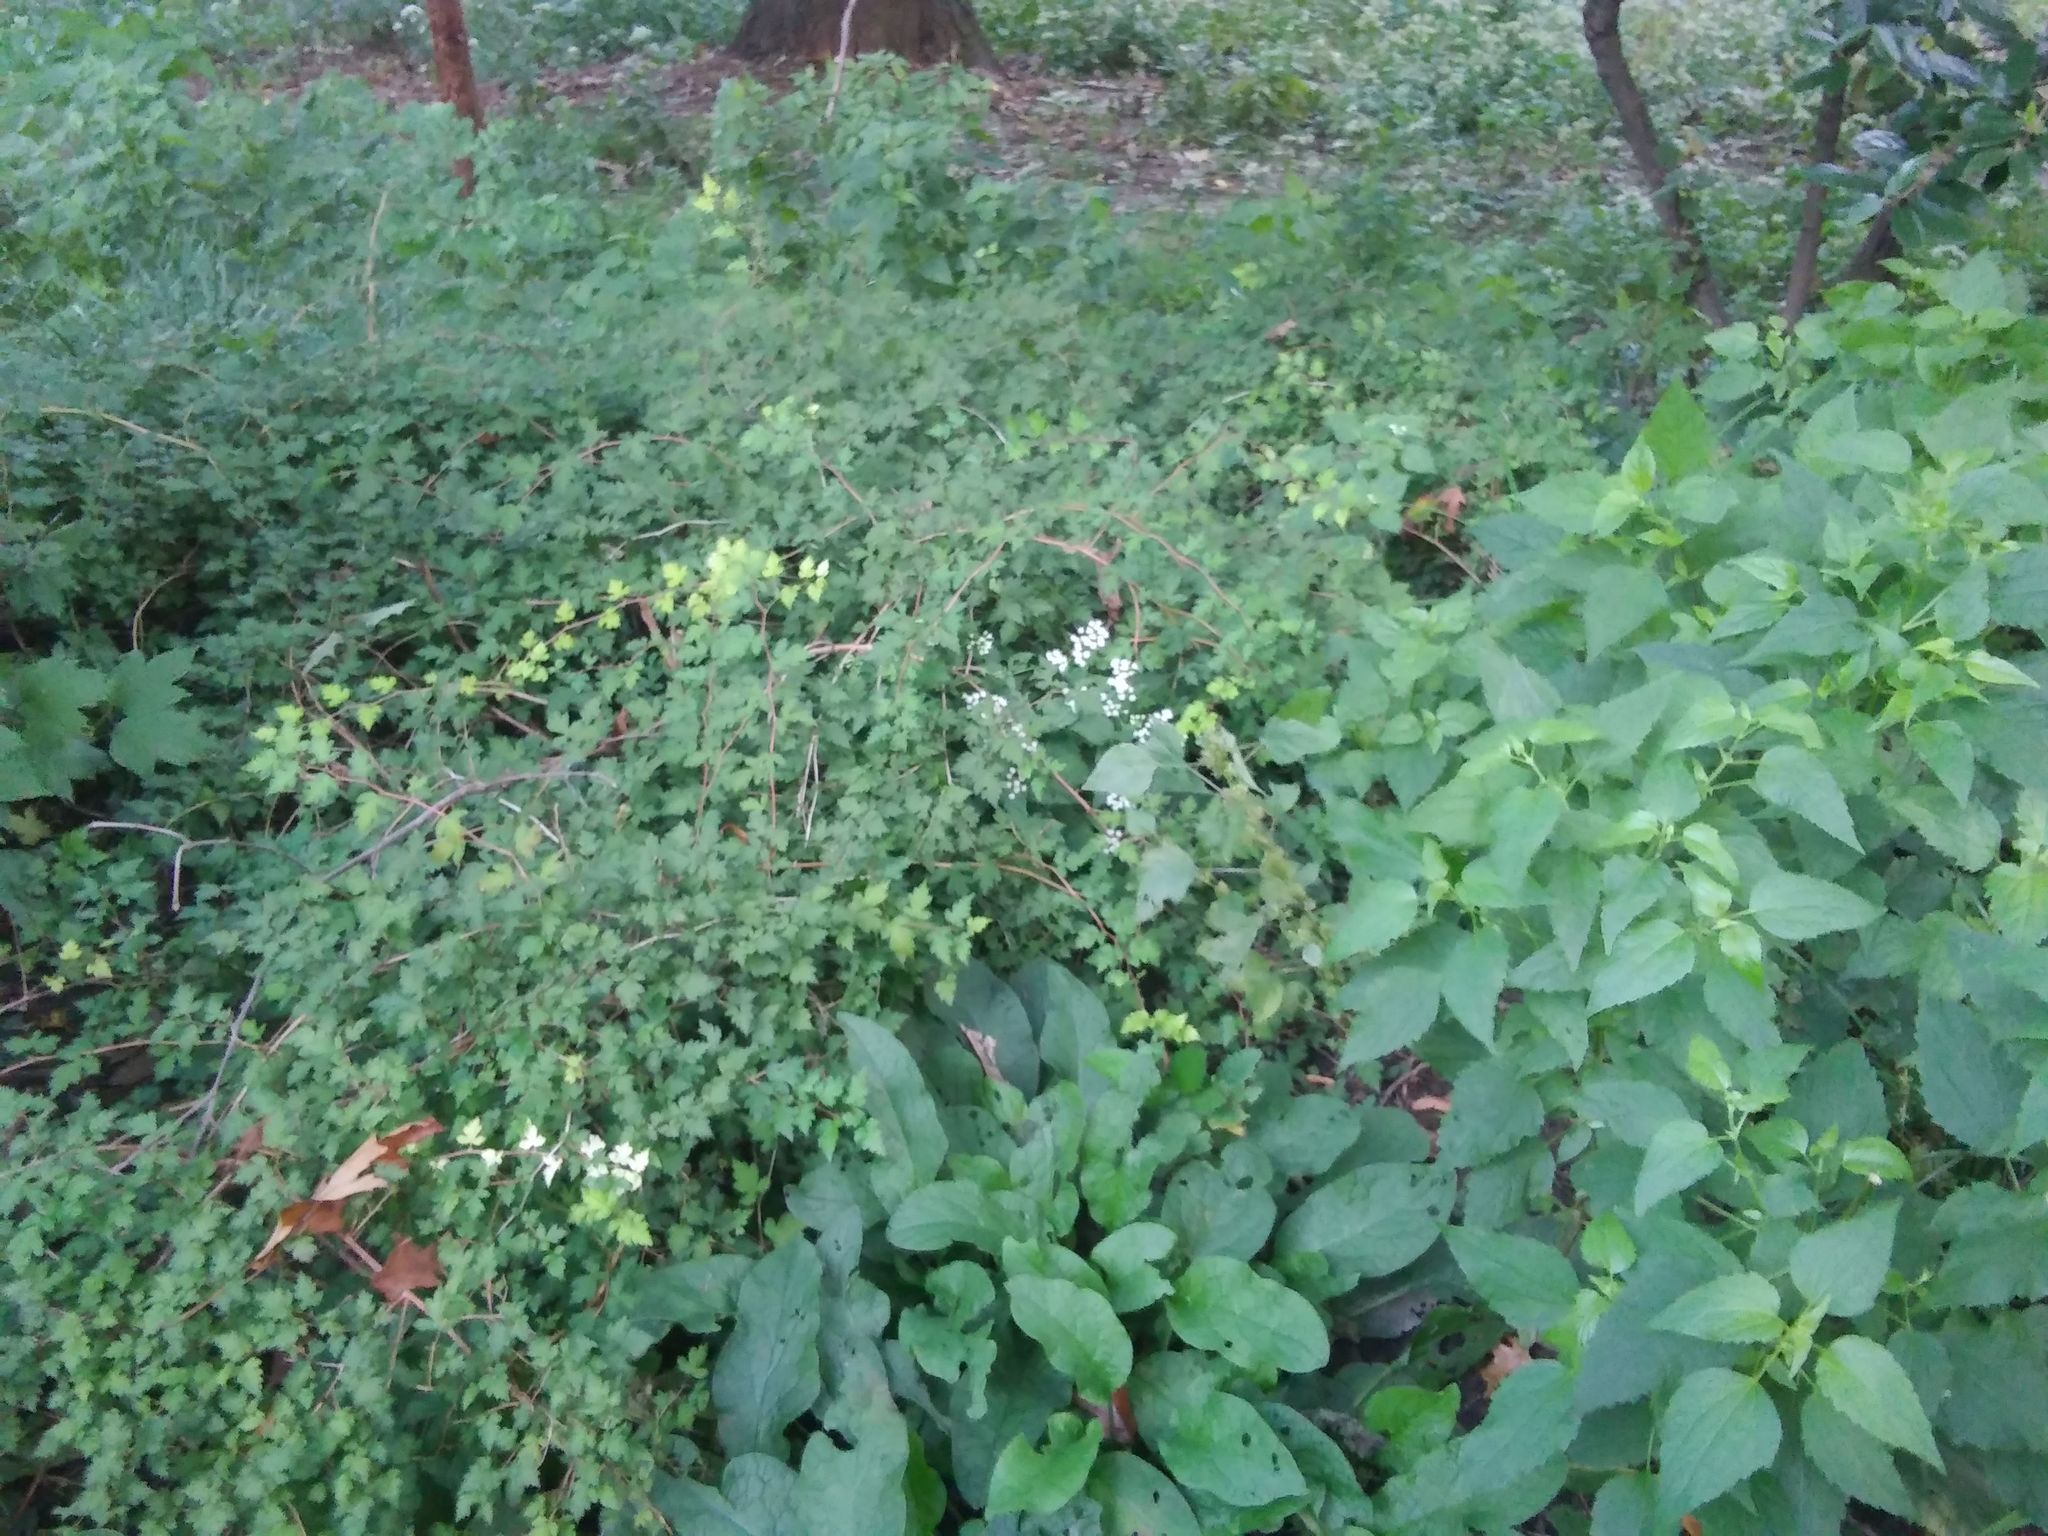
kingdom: Plantae
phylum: Tracheophyta
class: Magnoliopsida
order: Asterales
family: Asteraceae
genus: Ageratina
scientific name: Ageratina altissima
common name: White snakeroot
